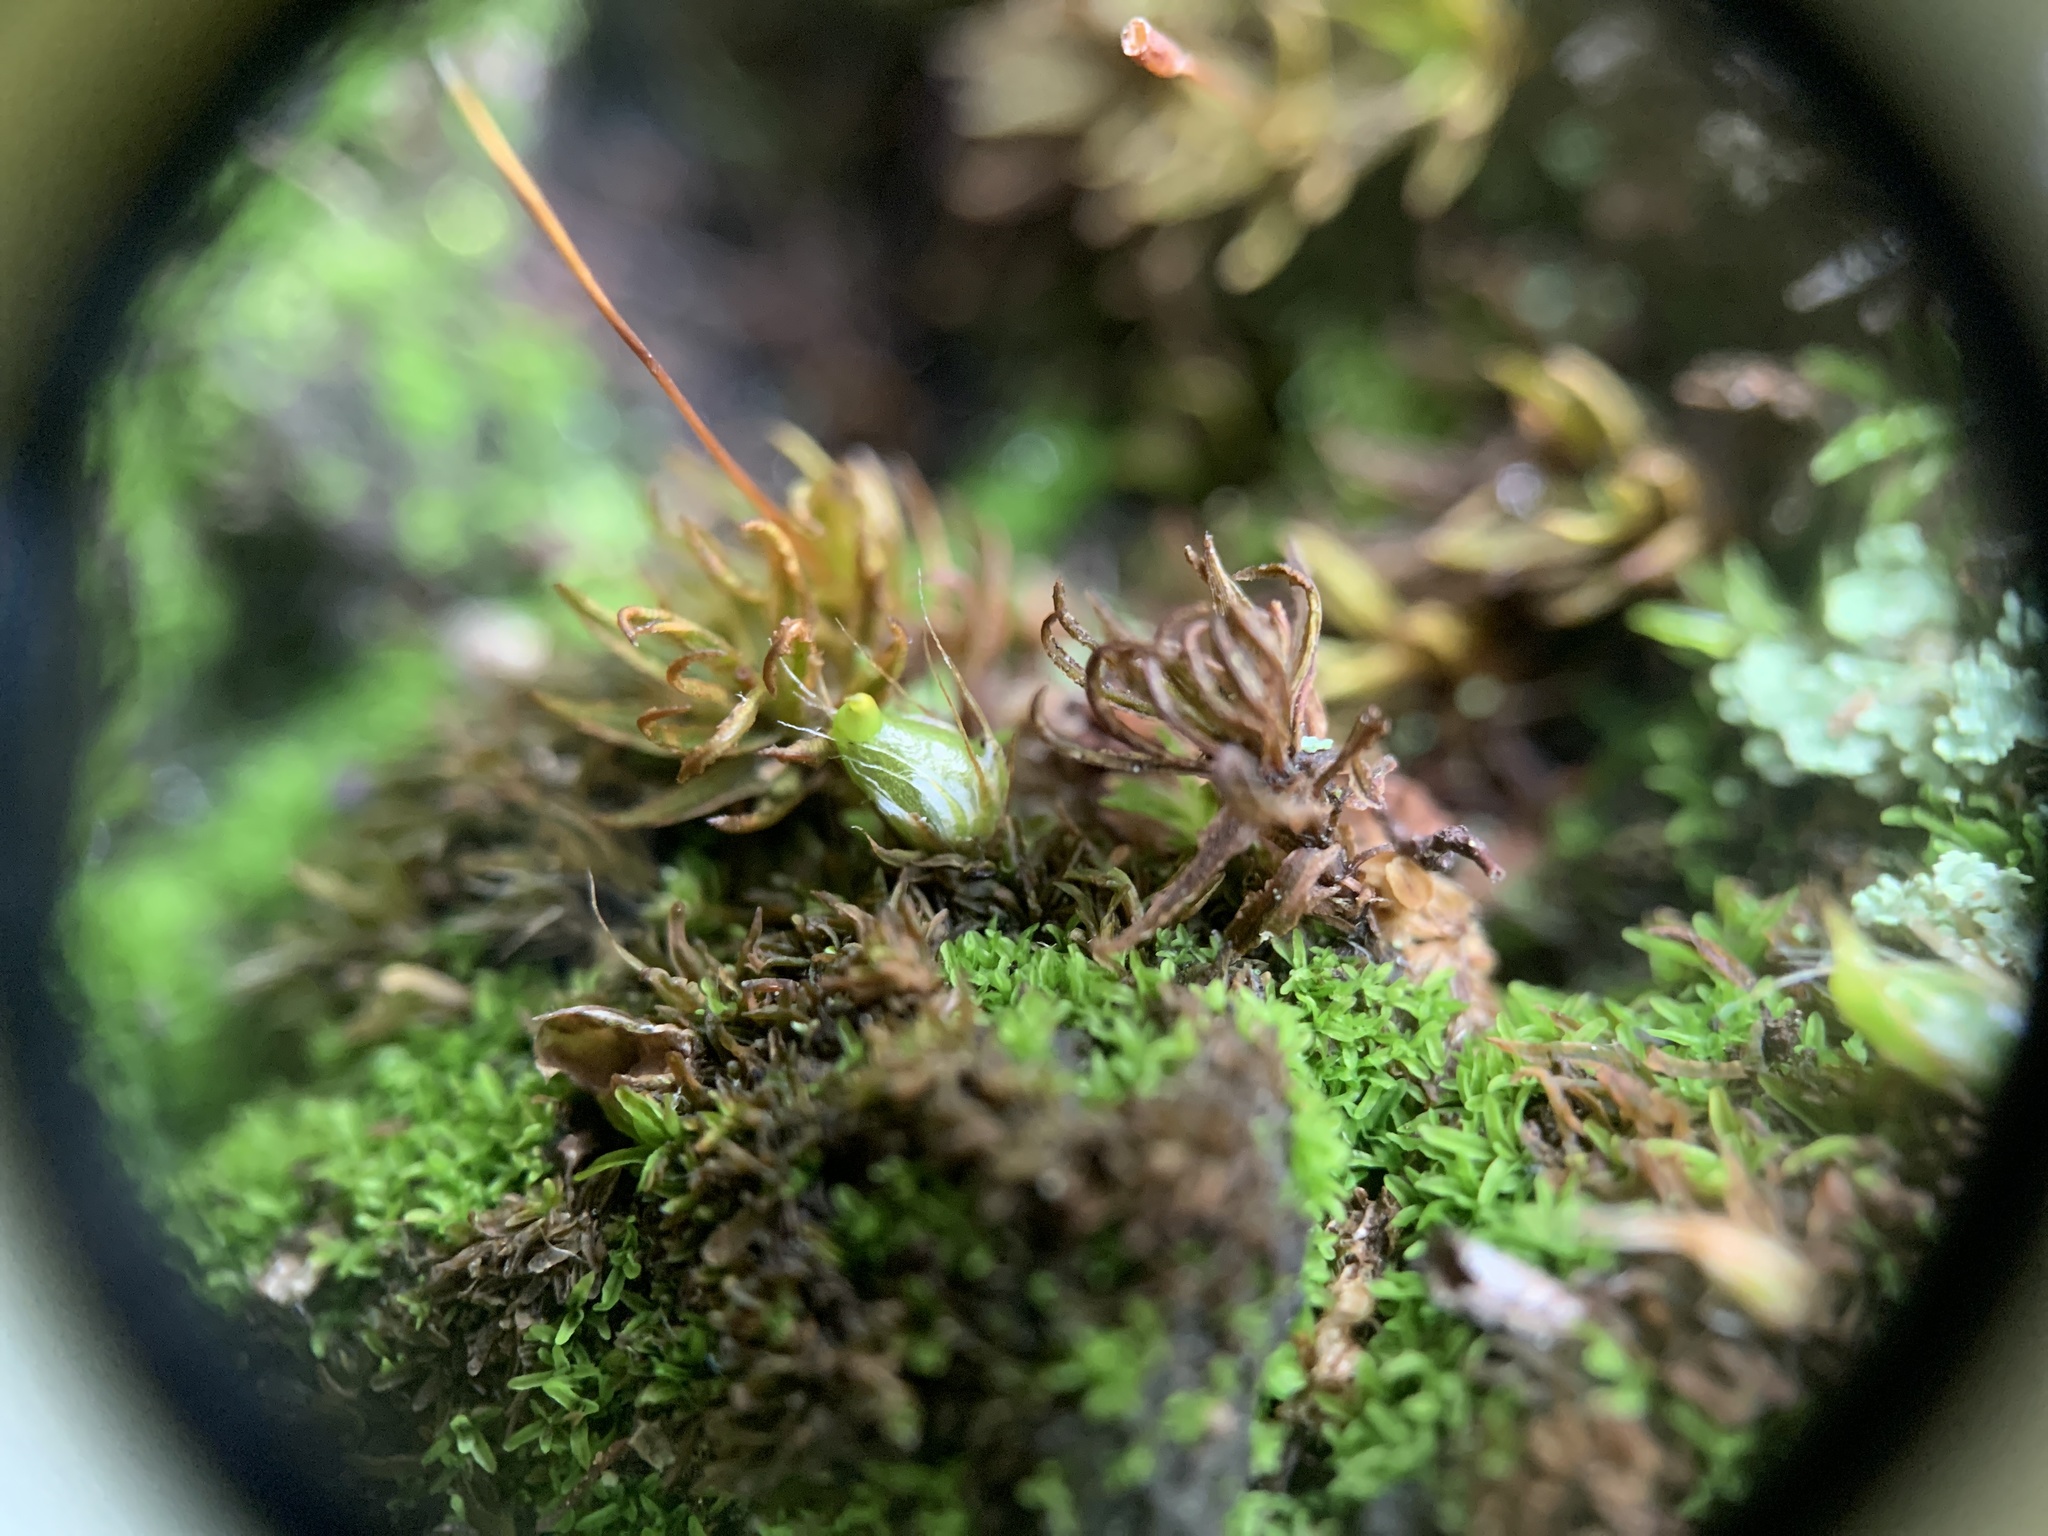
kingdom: Plantae
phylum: Bryophyta
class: Bryopsida
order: Diphysciales
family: Diphysciaceae
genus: Diphyscium
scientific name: Diphyscium foliosum
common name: Nut moss
